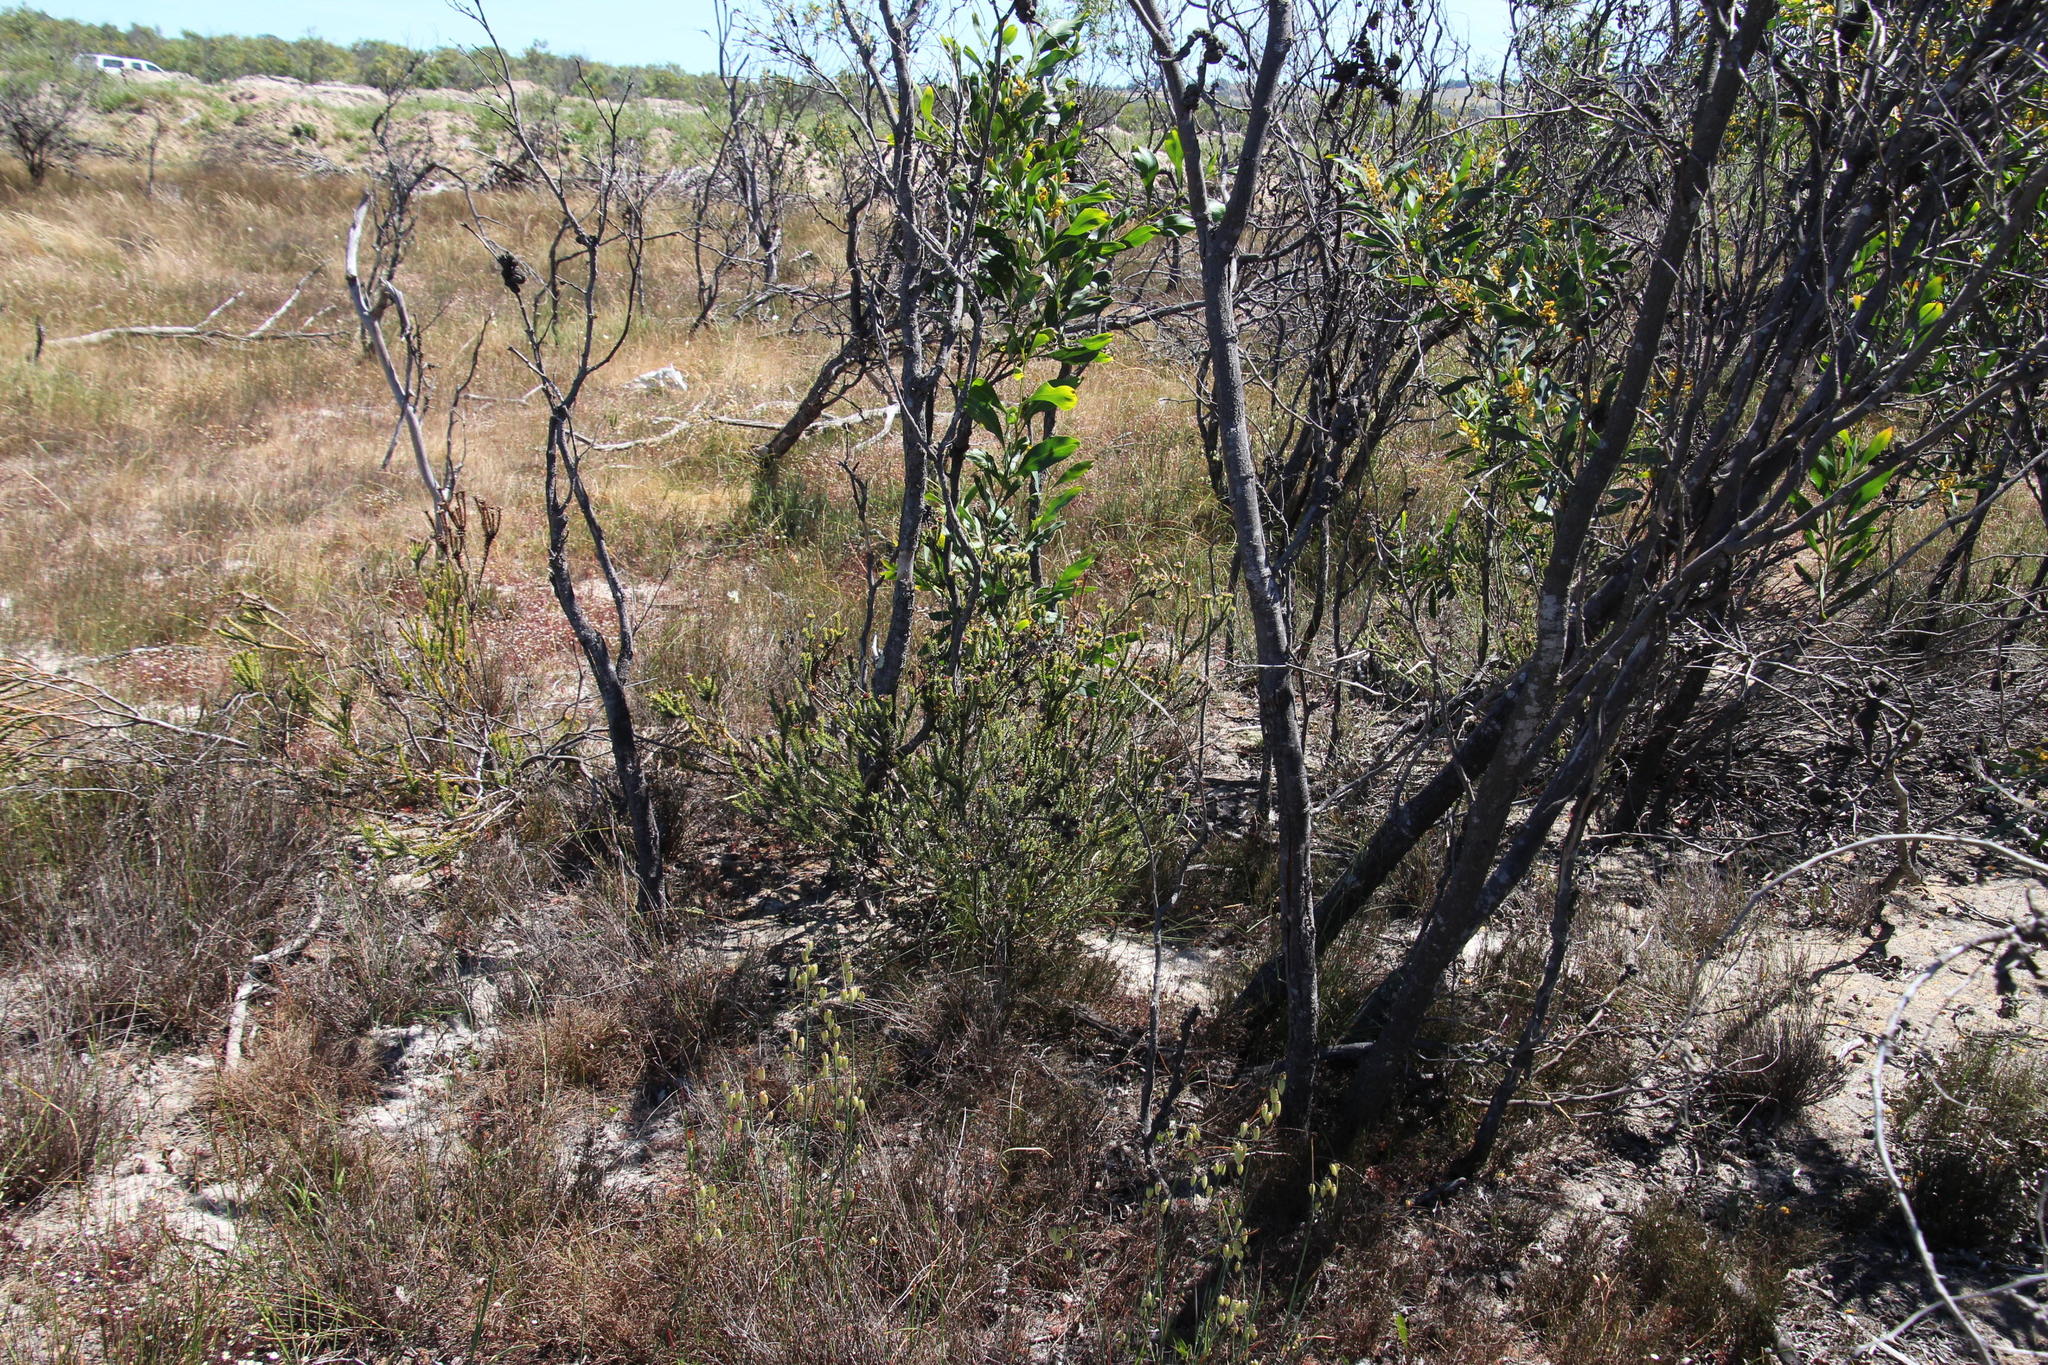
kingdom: Plantae
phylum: Tracheophyta
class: Magnoliopsida
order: Proteales
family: Proteaceae
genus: Leucadendron
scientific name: Leucadendron thymifolium
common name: Malmesbury conebush
